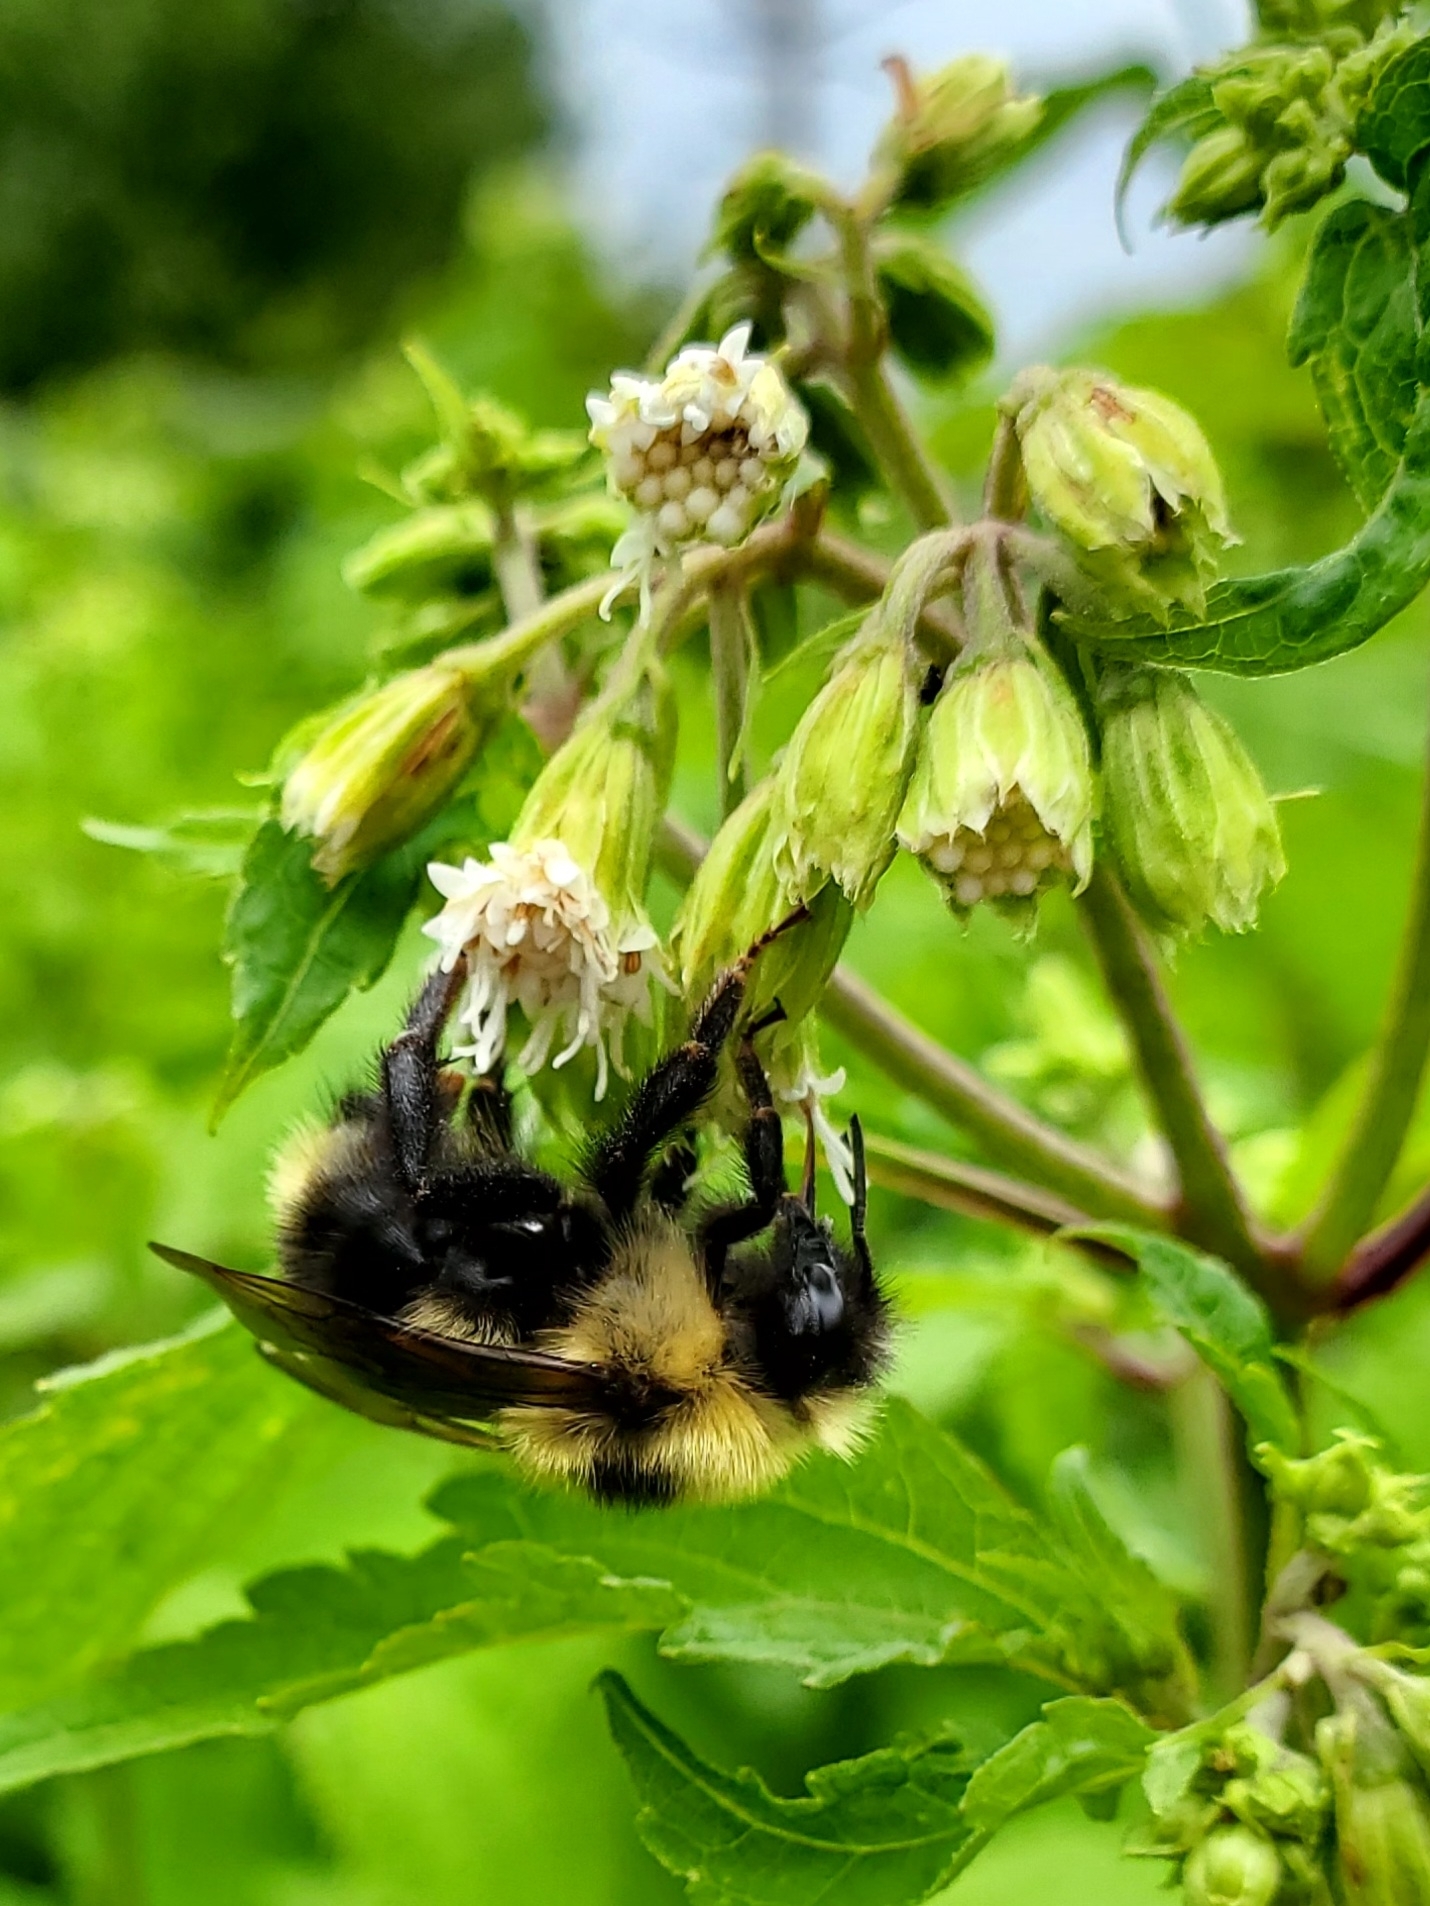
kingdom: Animalia
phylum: Arthropoda
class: Insecta
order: Hymenoptera
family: Apidae
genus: Bombus
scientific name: Bombus flavidus
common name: Fernald cuckoo bumble bee
